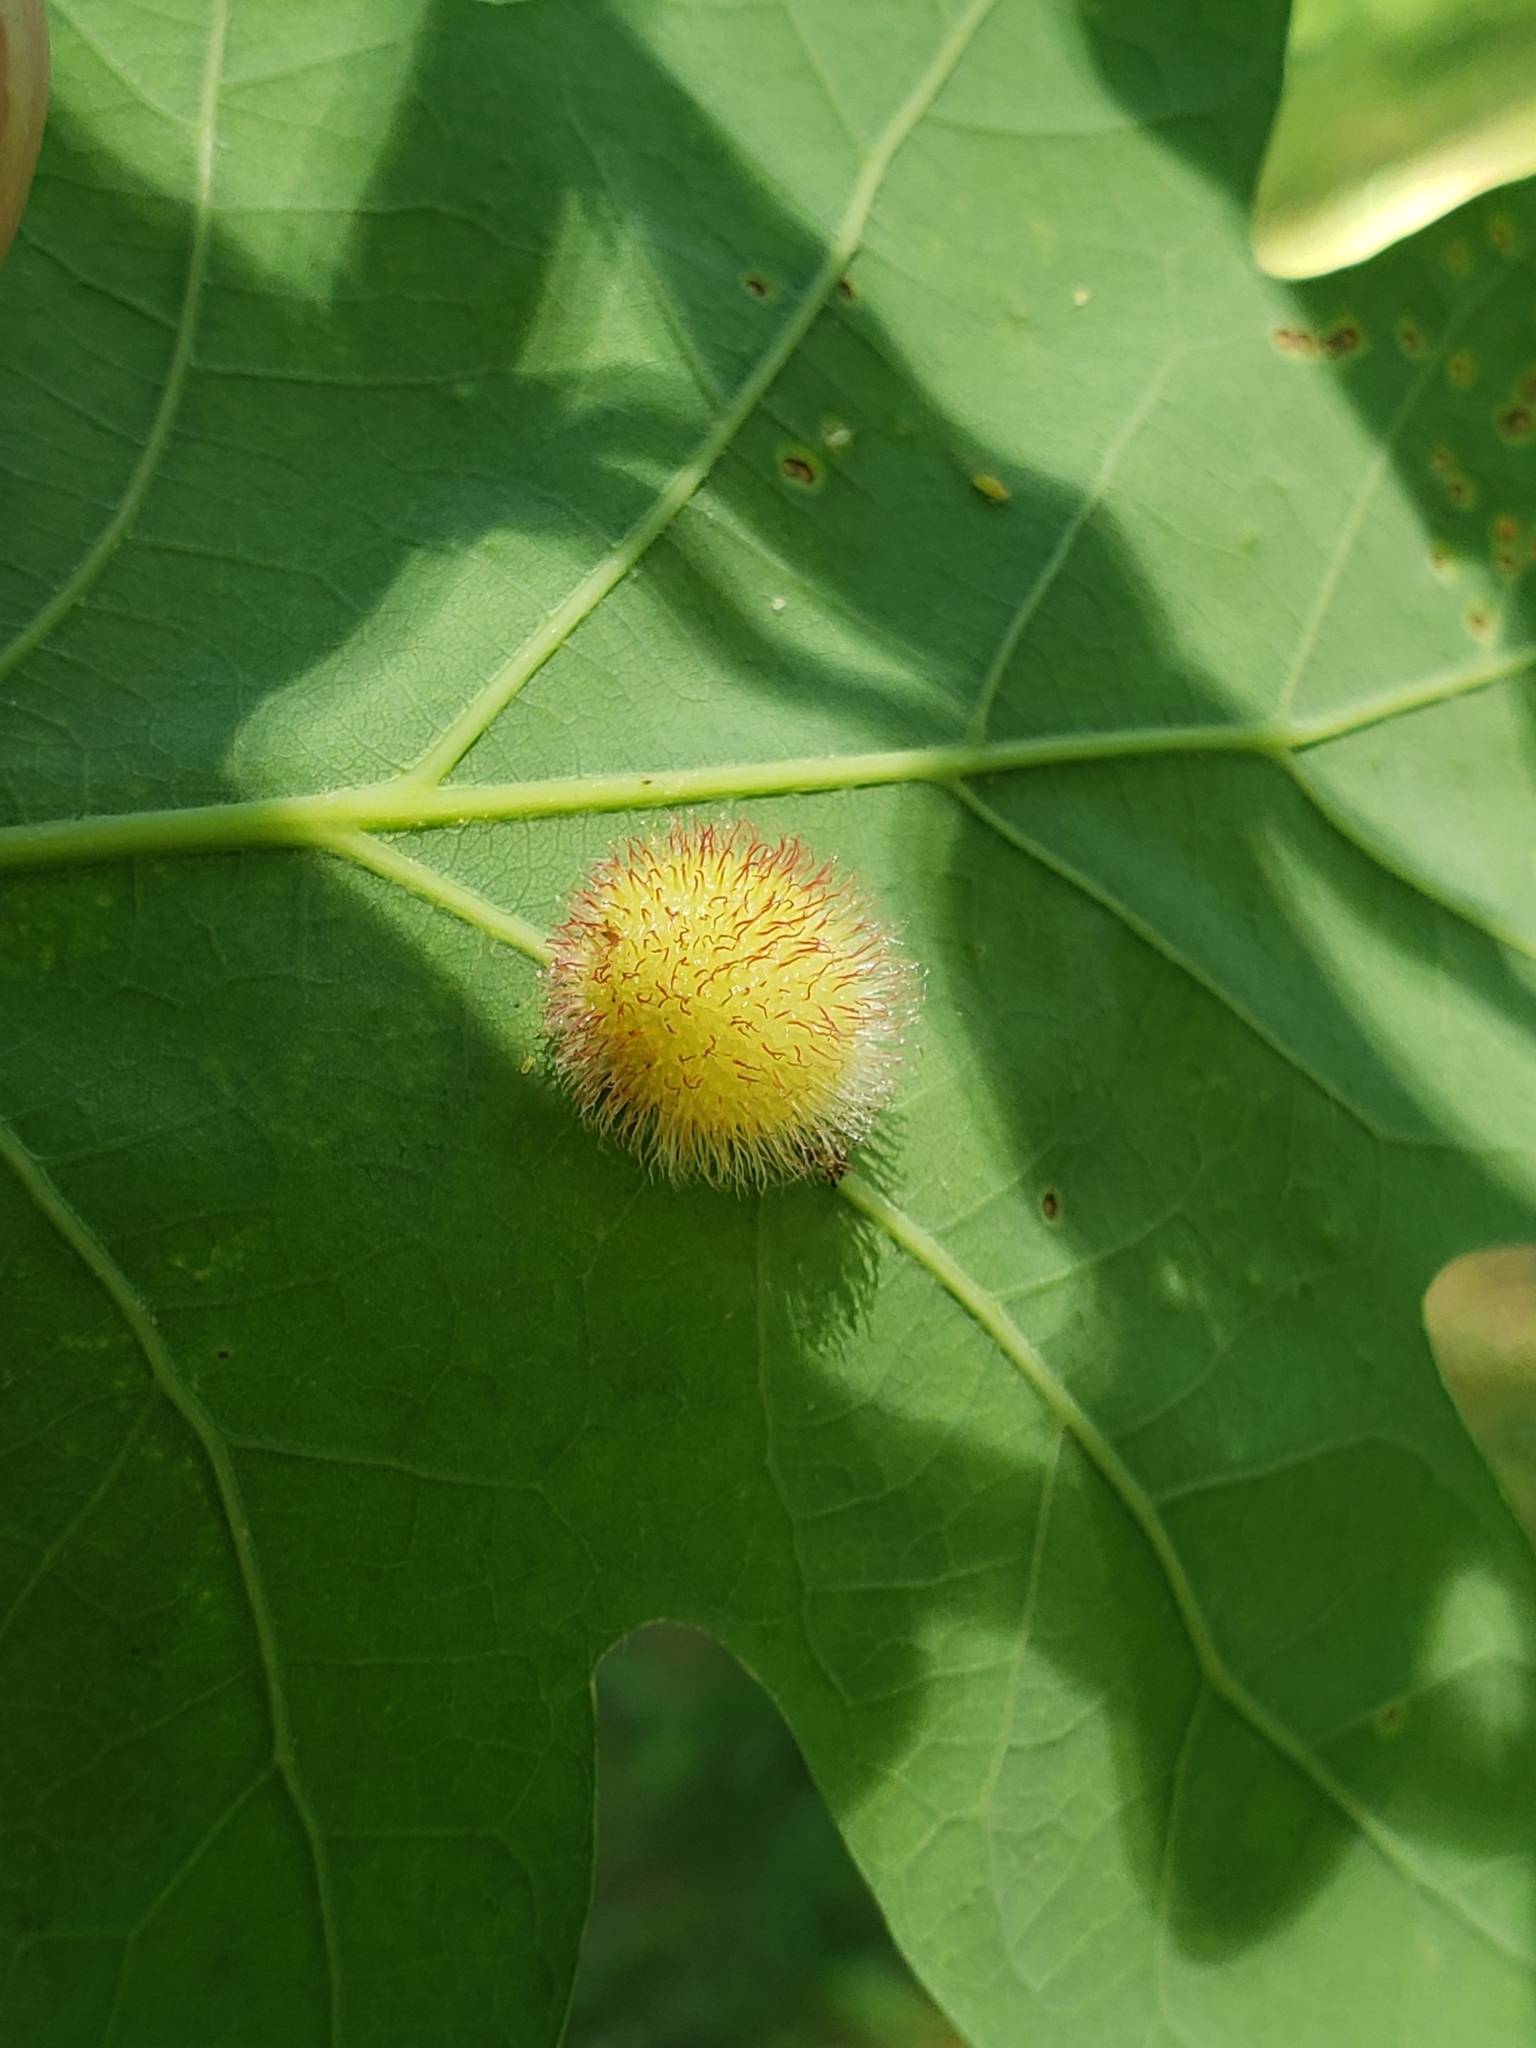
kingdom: Animalia
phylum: Arthropoda
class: Insecta
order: Hymenoptera
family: Cynipidae
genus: Acraspis
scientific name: Acraspis erinacei
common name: Hedgehog gall wasp
